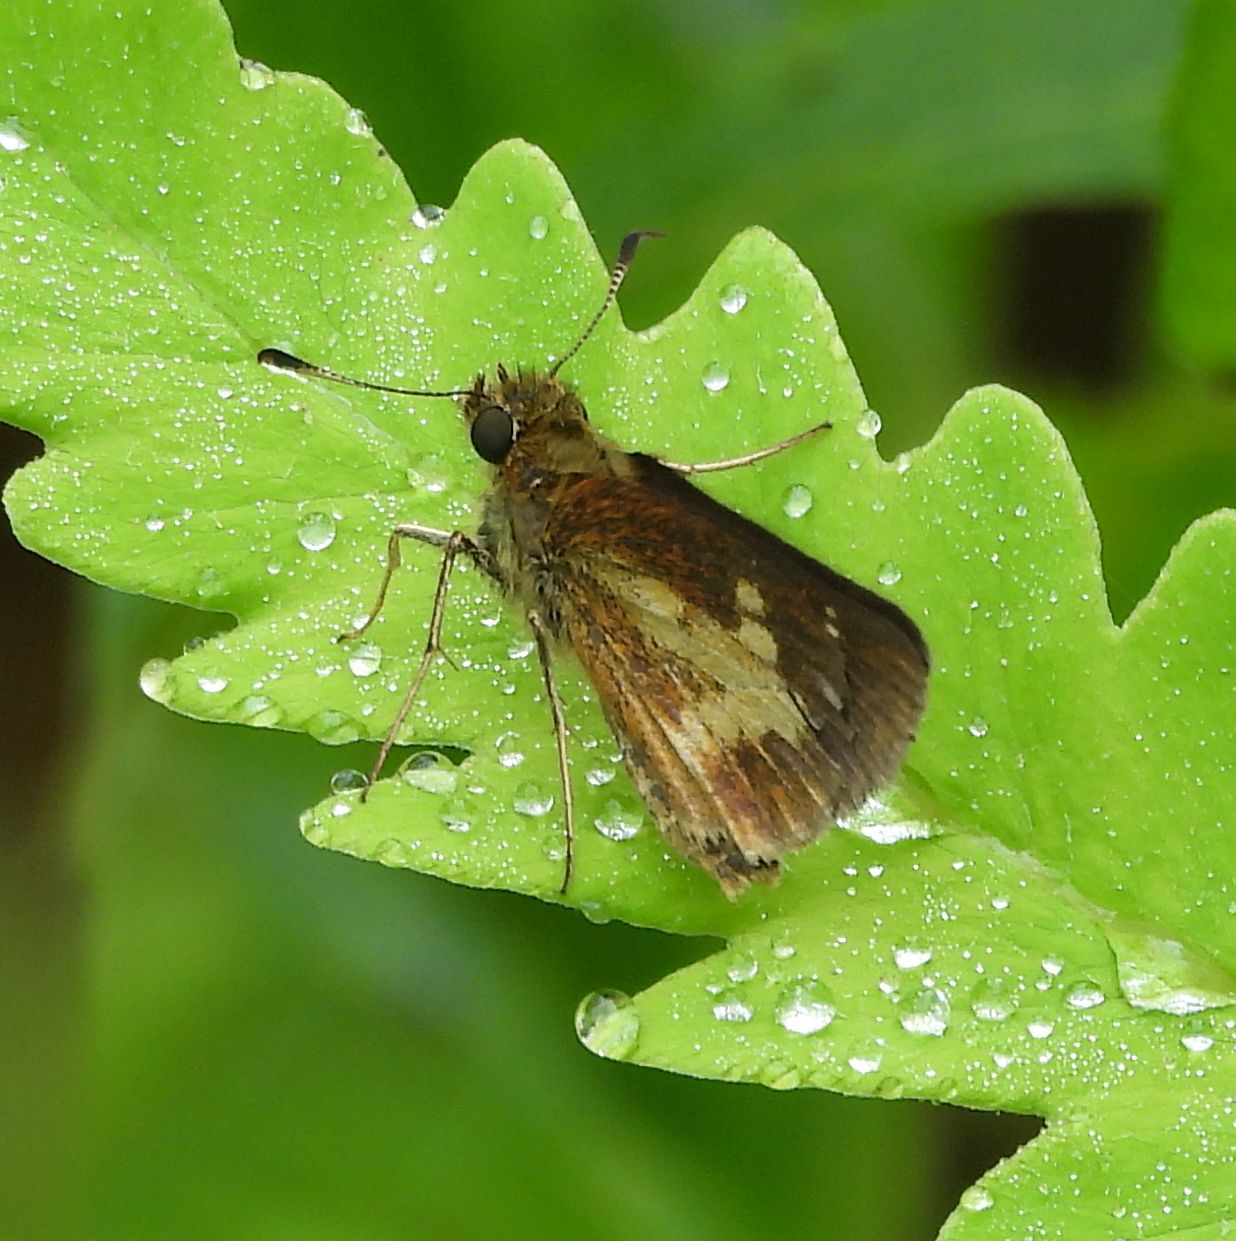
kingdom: Animalia
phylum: Arthropoda
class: Insecta
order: Lepidoptera
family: Hesperiidae
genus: Poanes
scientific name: Poanes massasoit
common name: Mulberrywing
